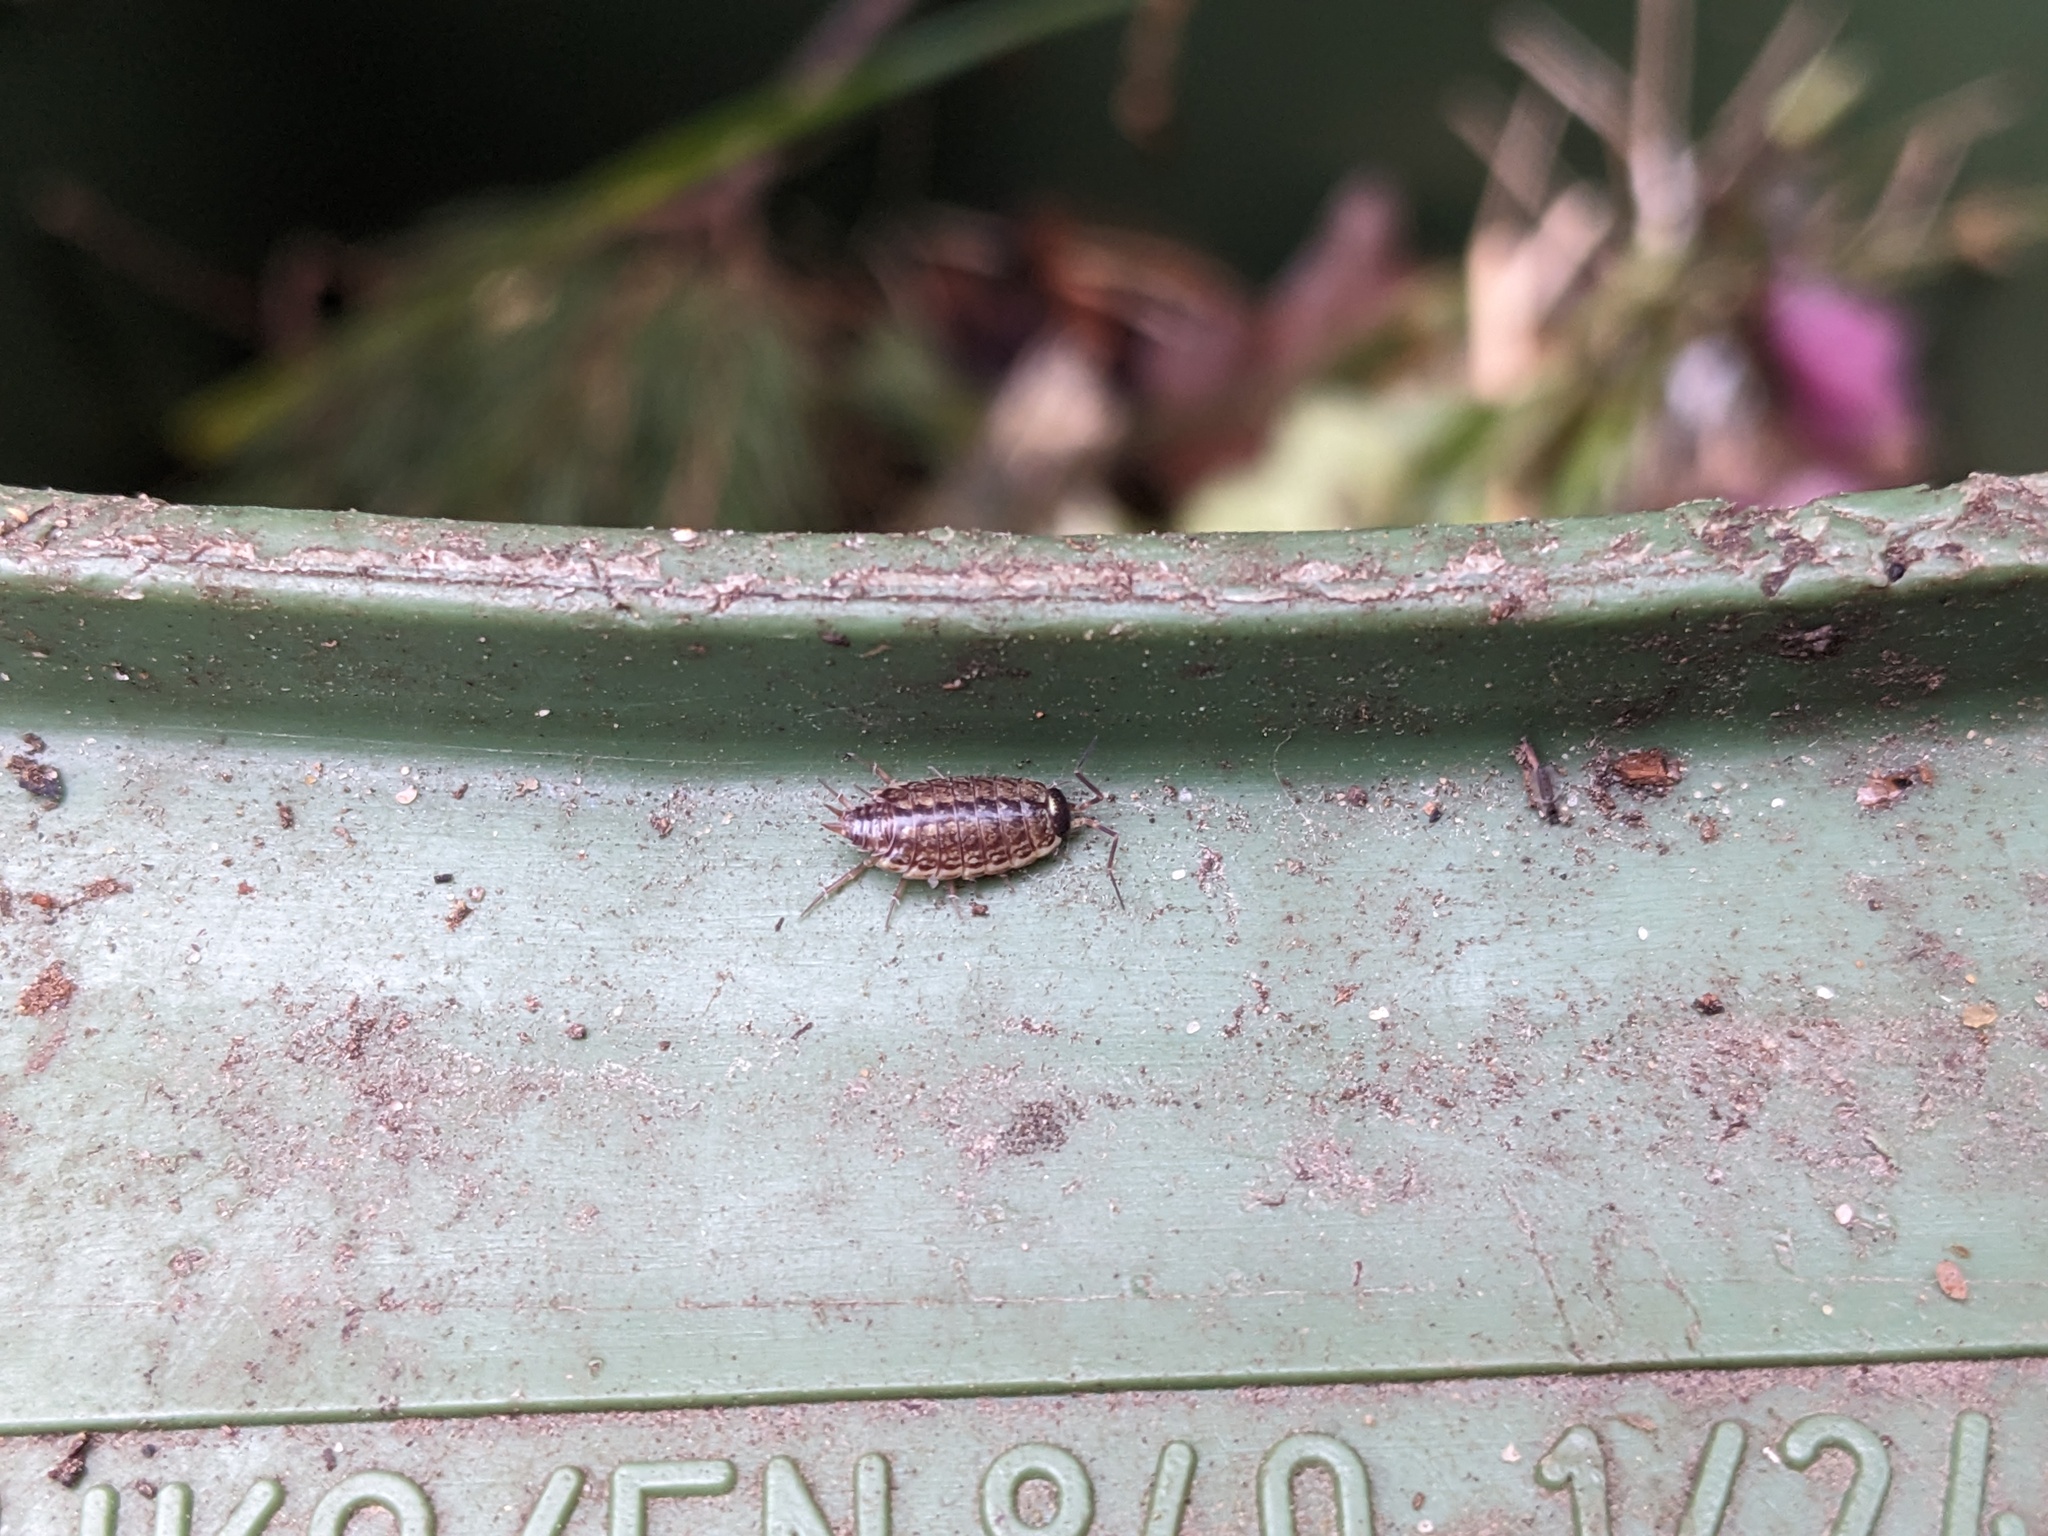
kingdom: Animalia
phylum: Arthropoda
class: Malacostraca
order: Isopoda
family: Philosciidae
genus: Philoscia
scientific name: Philoscia muscorum
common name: Common striped woodlouse
